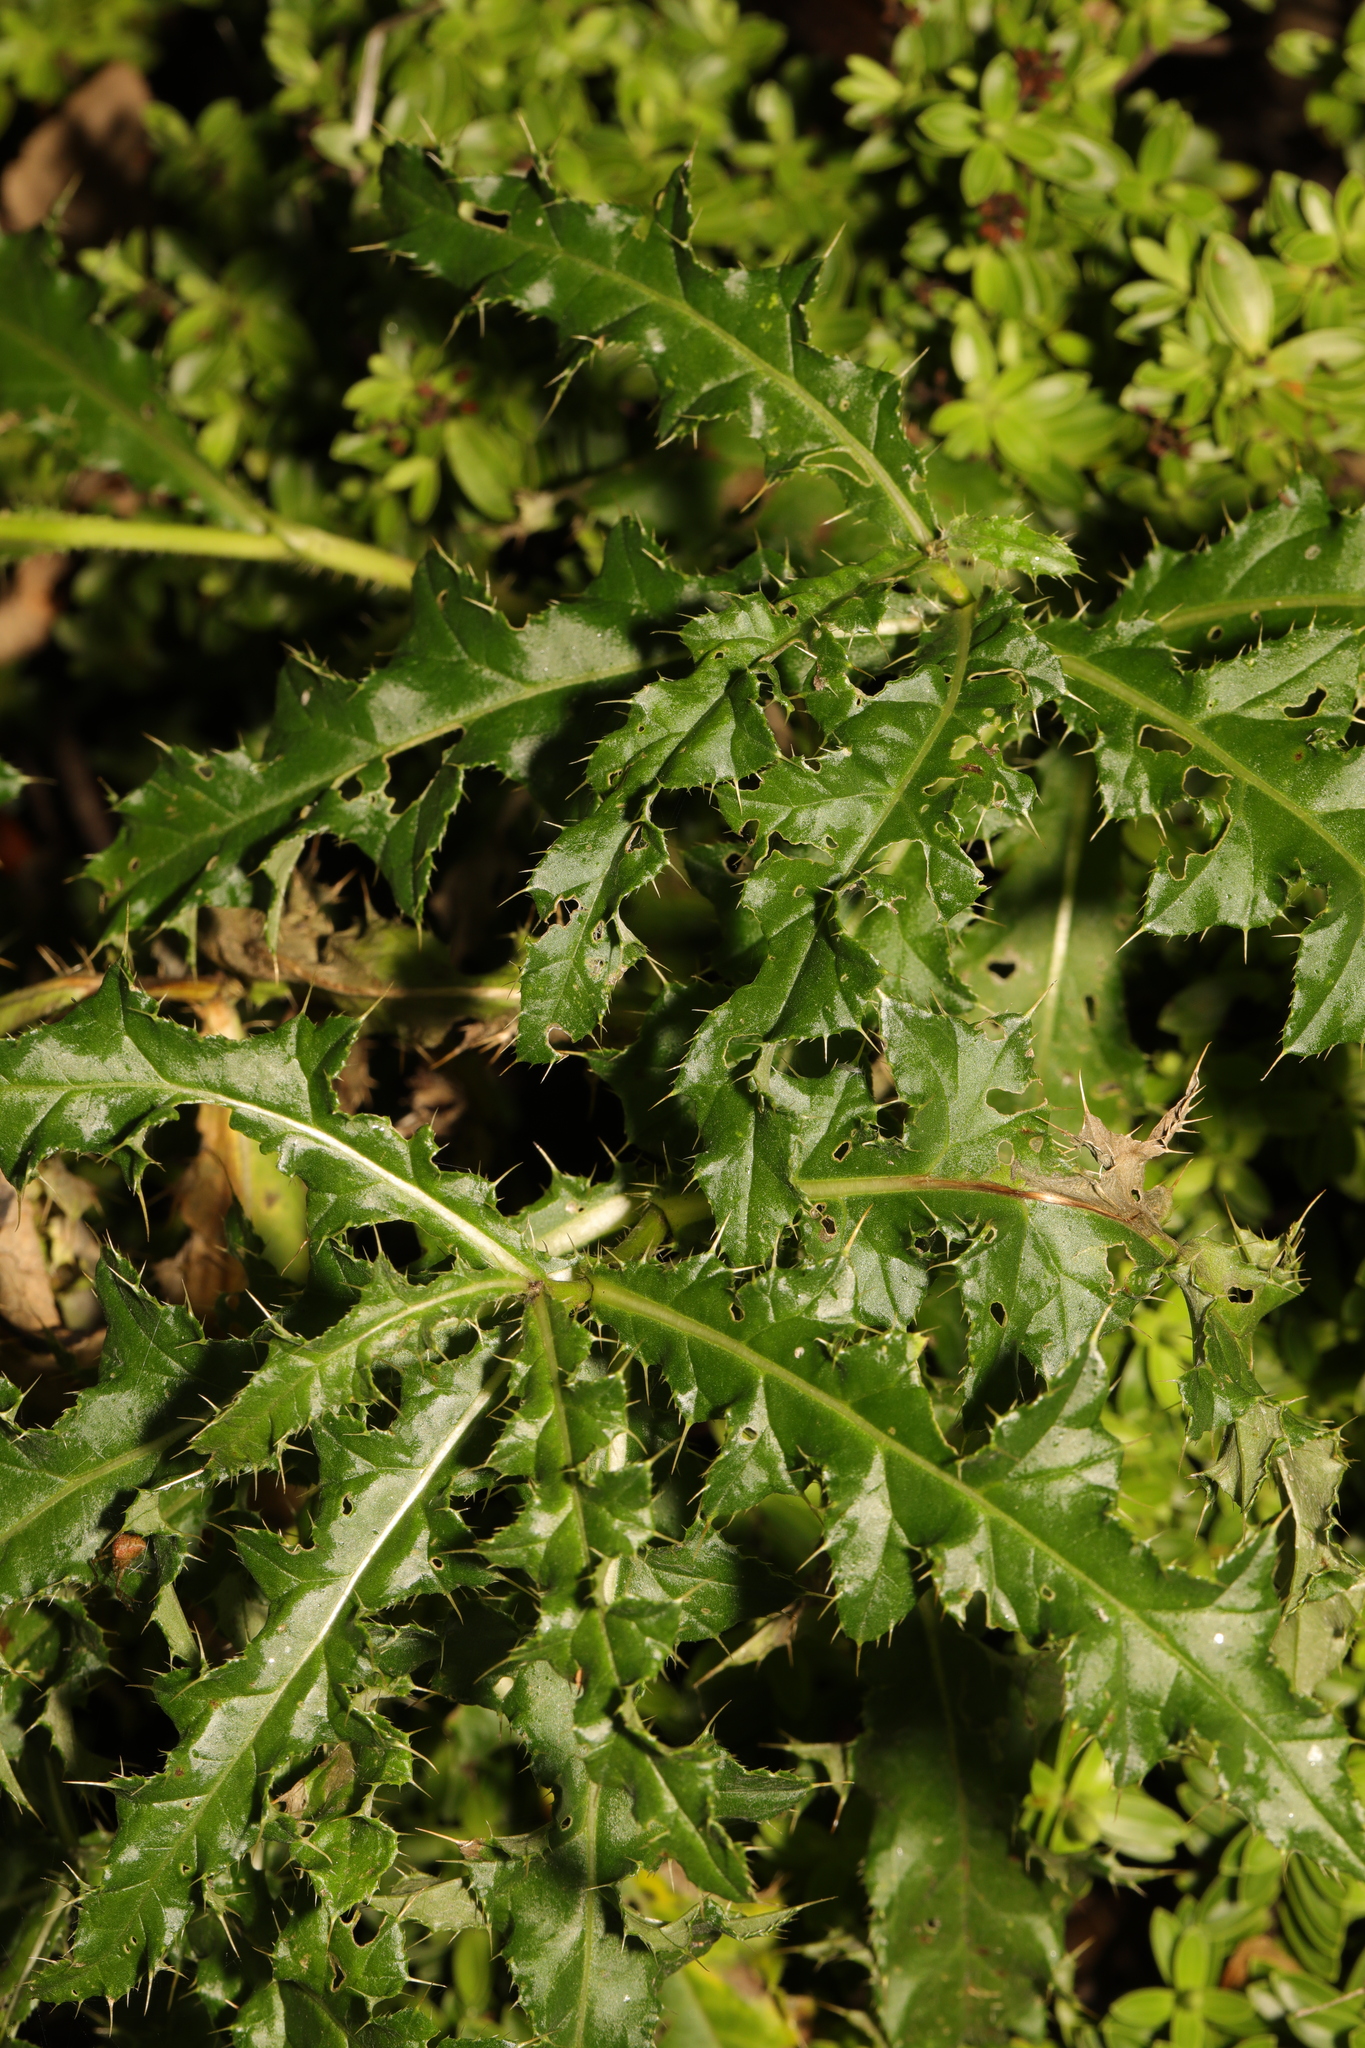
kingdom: Plantae
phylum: Tracheophyta
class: Magnoliopsida
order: Asterales
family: Asteraceae
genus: Cirsium
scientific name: Cirsium arvense
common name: Creeping thistle
